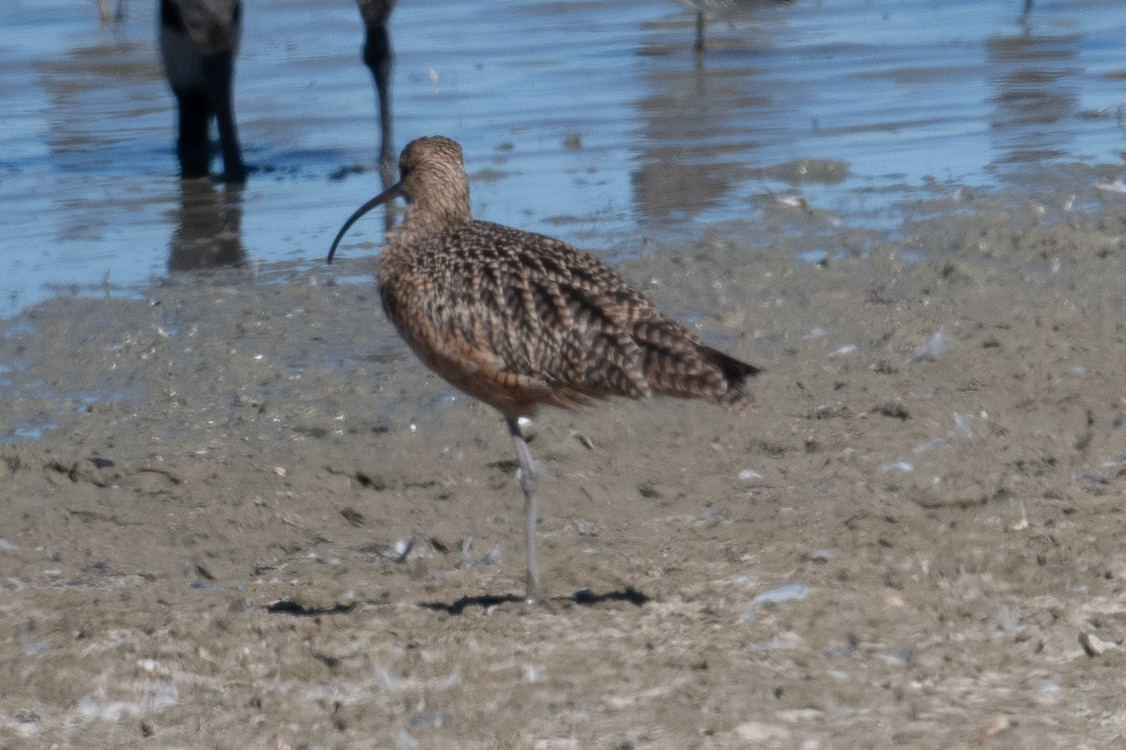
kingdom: Animalia
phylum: Chordata
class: Aves
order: Charadriiformes
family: Scolopacidae
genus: Numenius
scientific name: Numenius americanus
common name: Long-billed curlew
